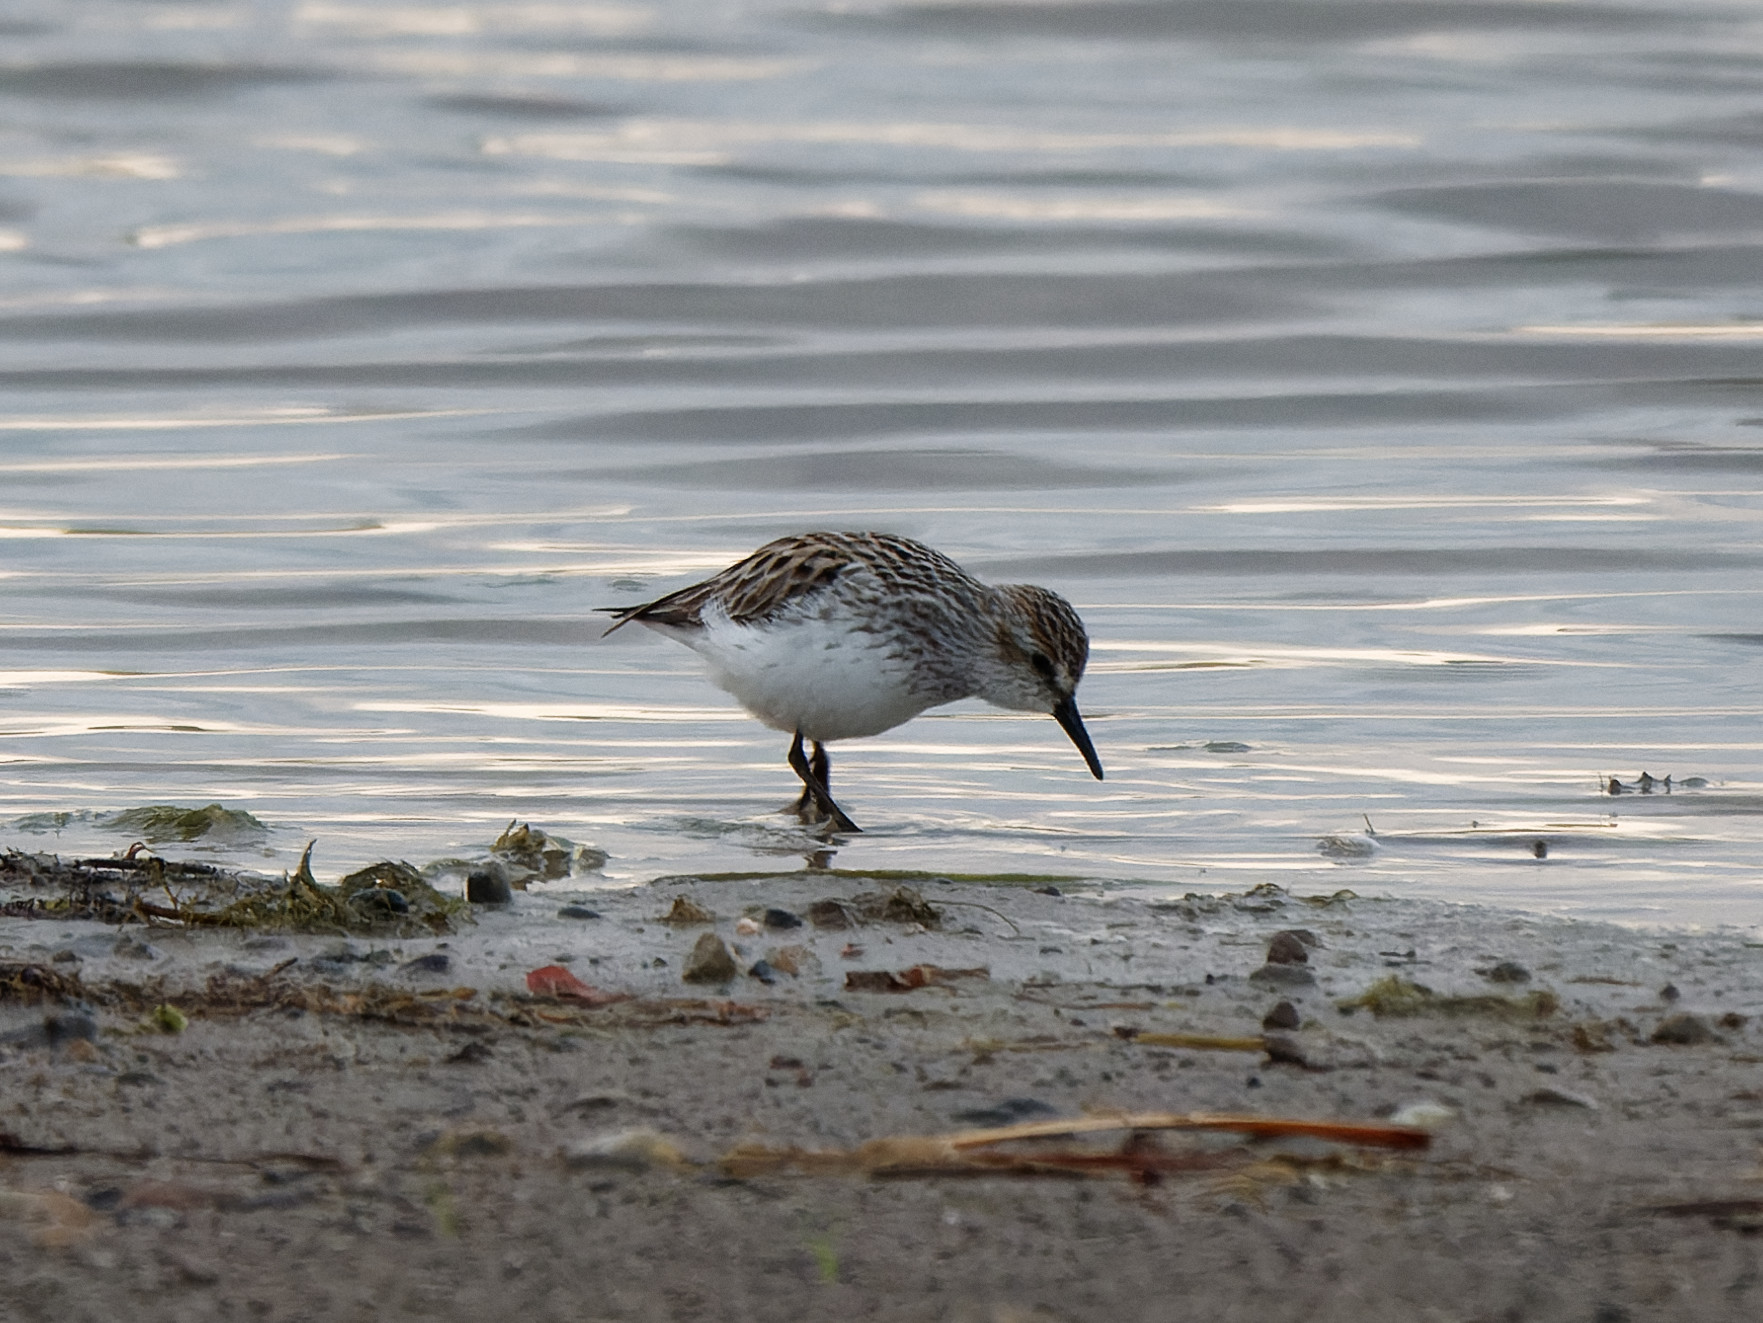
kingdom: Animalia
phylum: Chordata
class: Aves
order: Charadriiformes
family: Scolopacidae
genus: Calidris
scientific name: Calidris pusilla
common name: Semipalmated sandpiper
